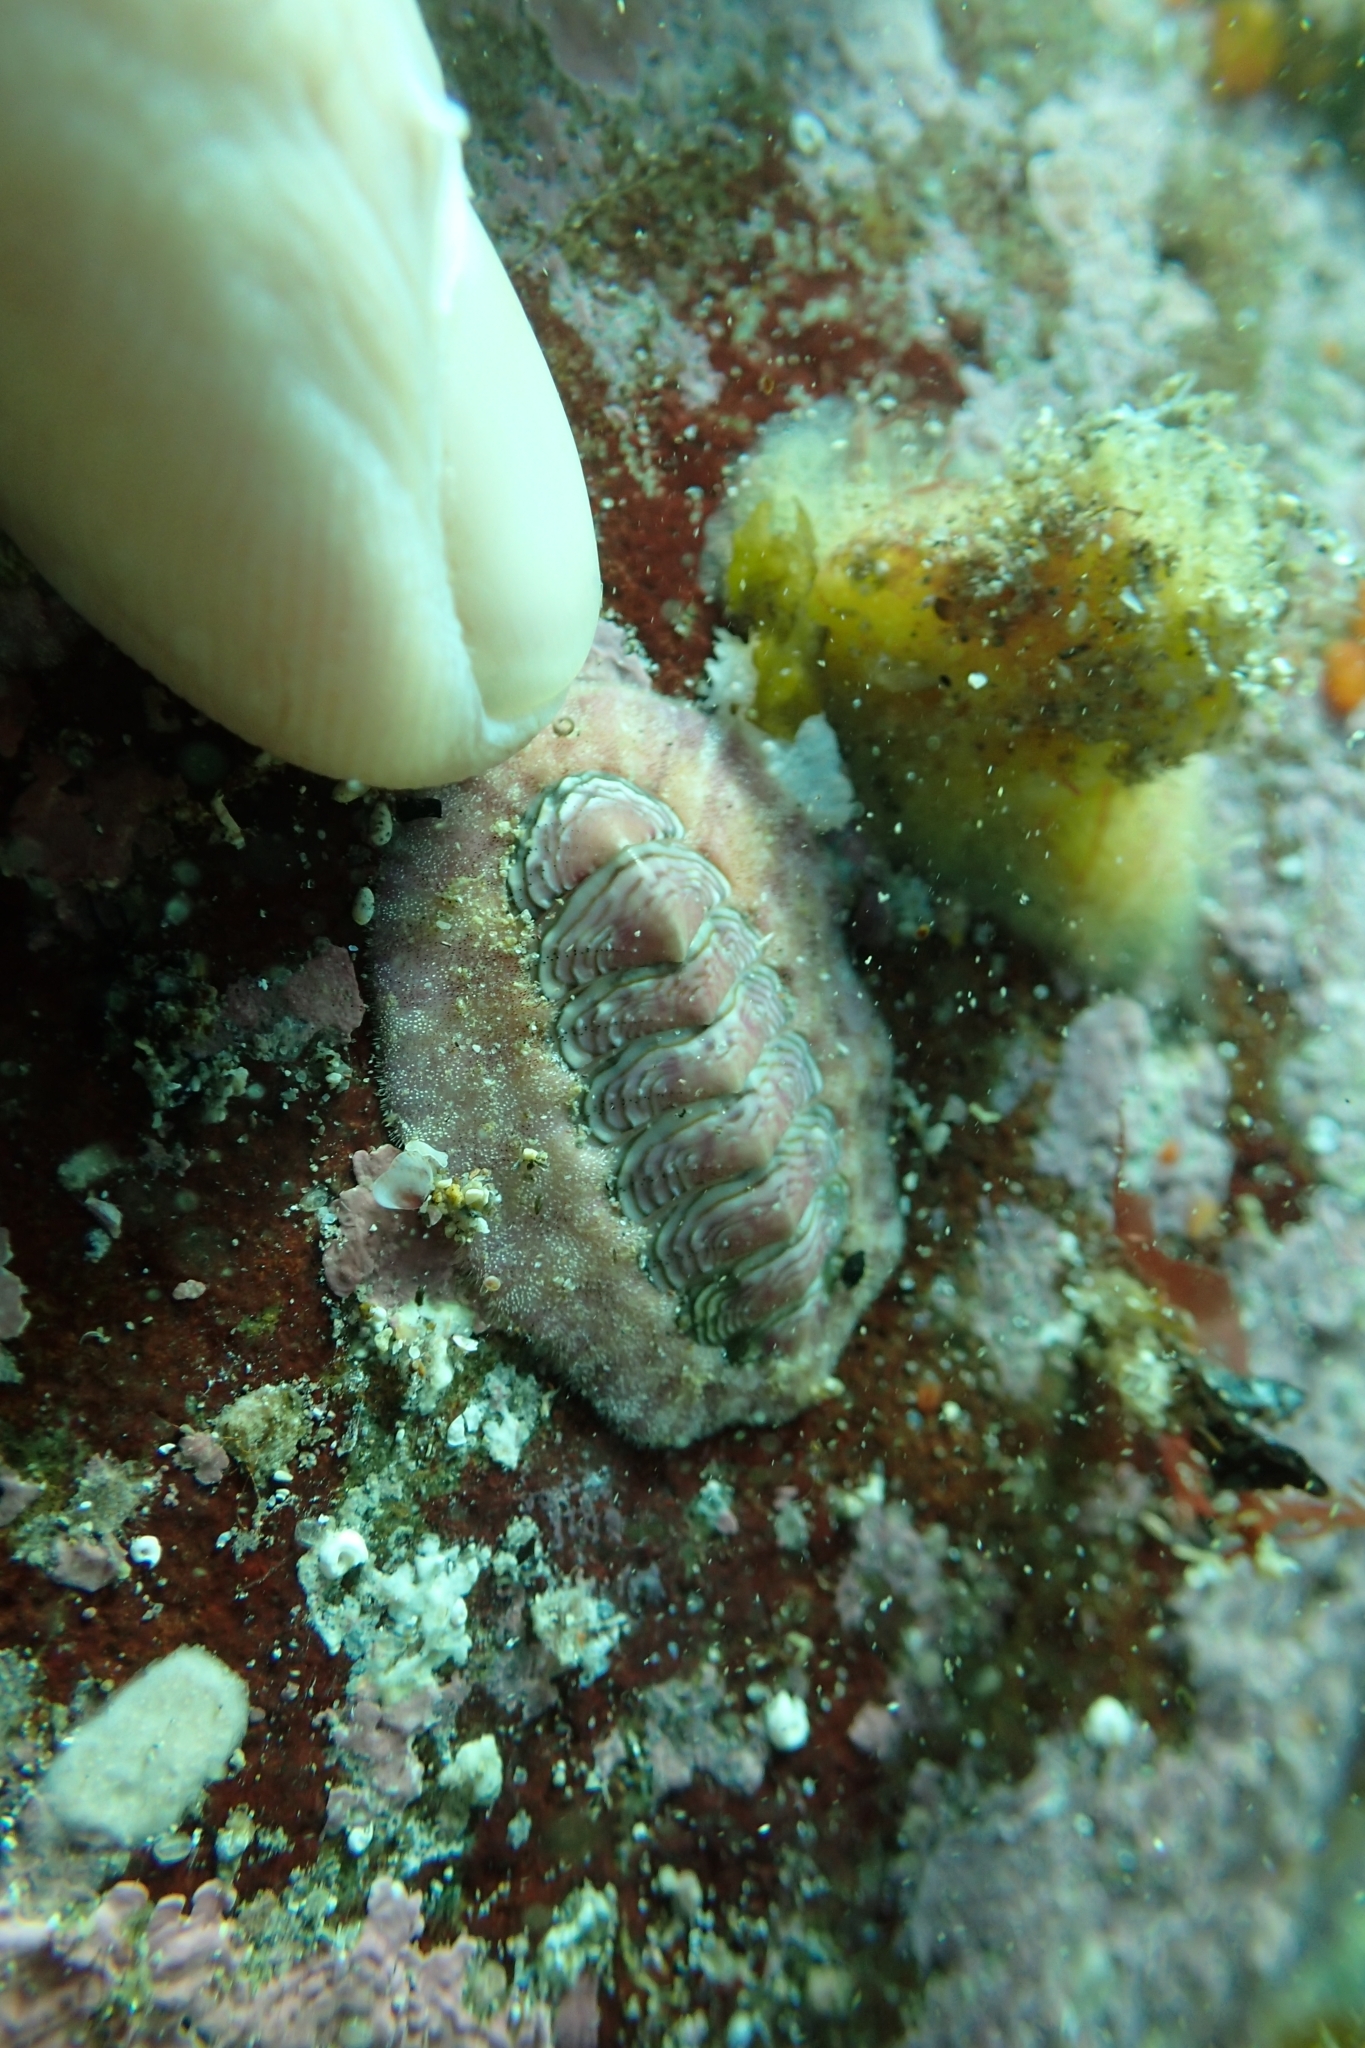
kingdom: Animalia
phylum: Mollusca
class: Polyplacophora
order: Chitonida
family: Chitonidae
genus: Onithochiton
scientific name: Onithochiton neglectus
